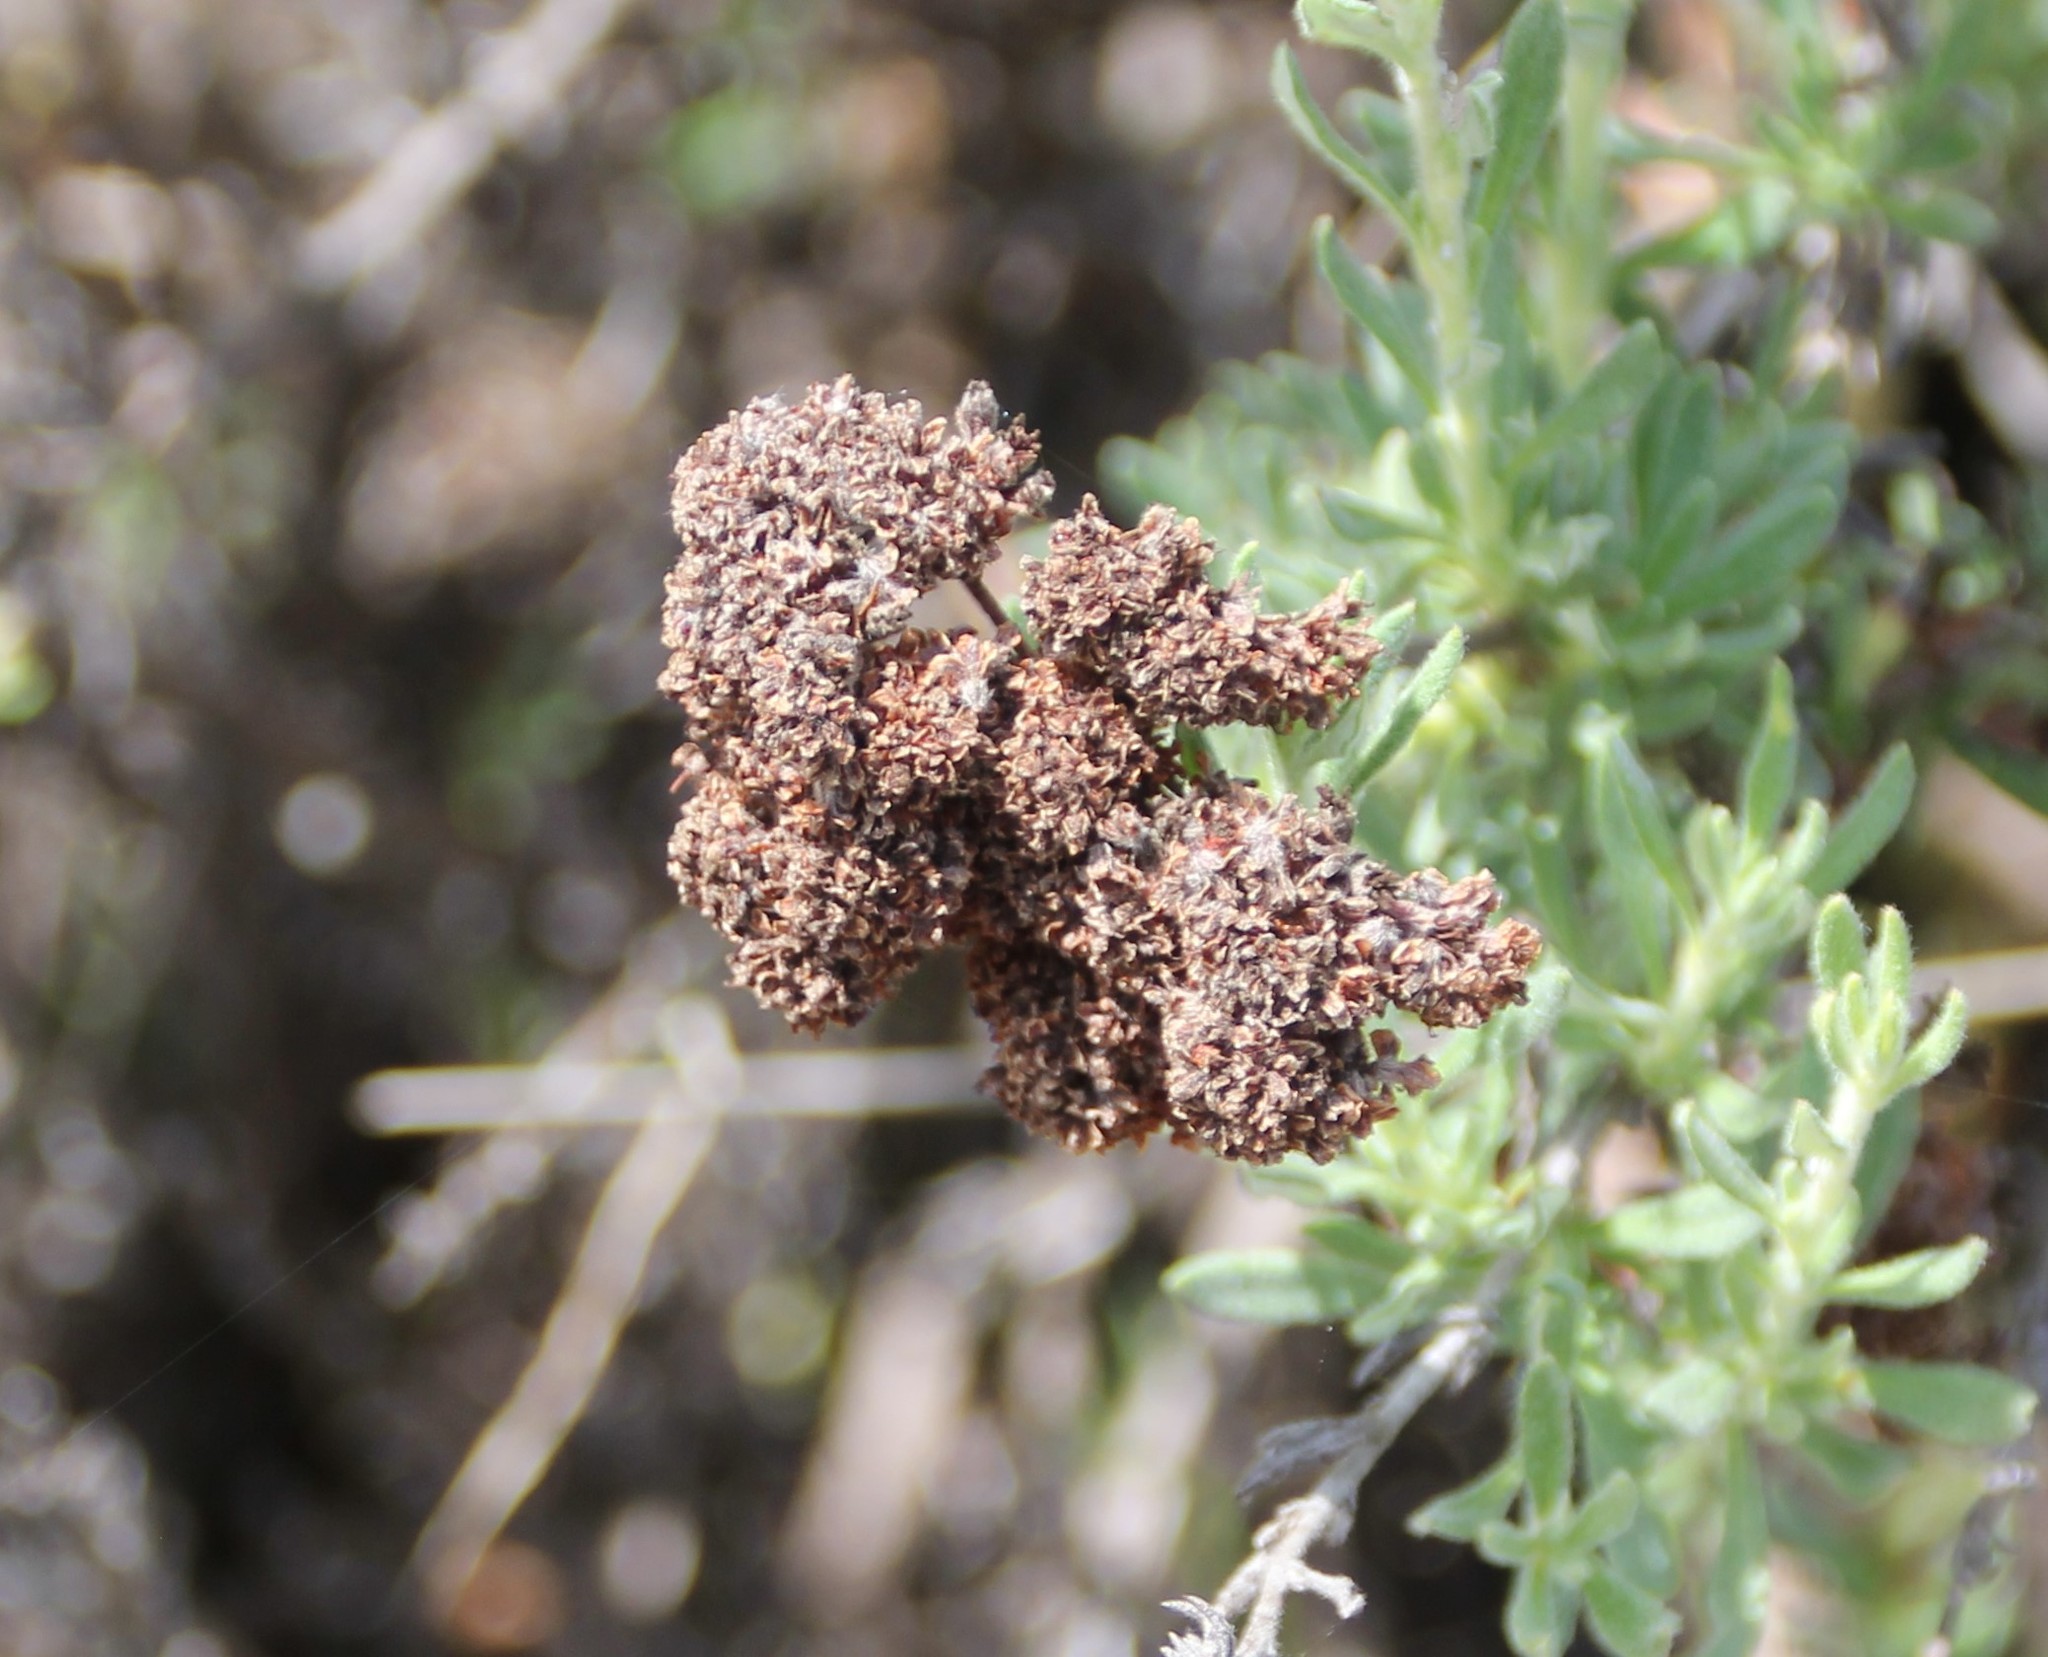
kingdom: Plantae
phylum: Tracheophyta
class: Magnoliopsida
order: Caryophyllales
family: Polygonaceae
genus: Eriogonum
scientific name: Eriogonum fasciculatum
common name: California wild buckwheat
